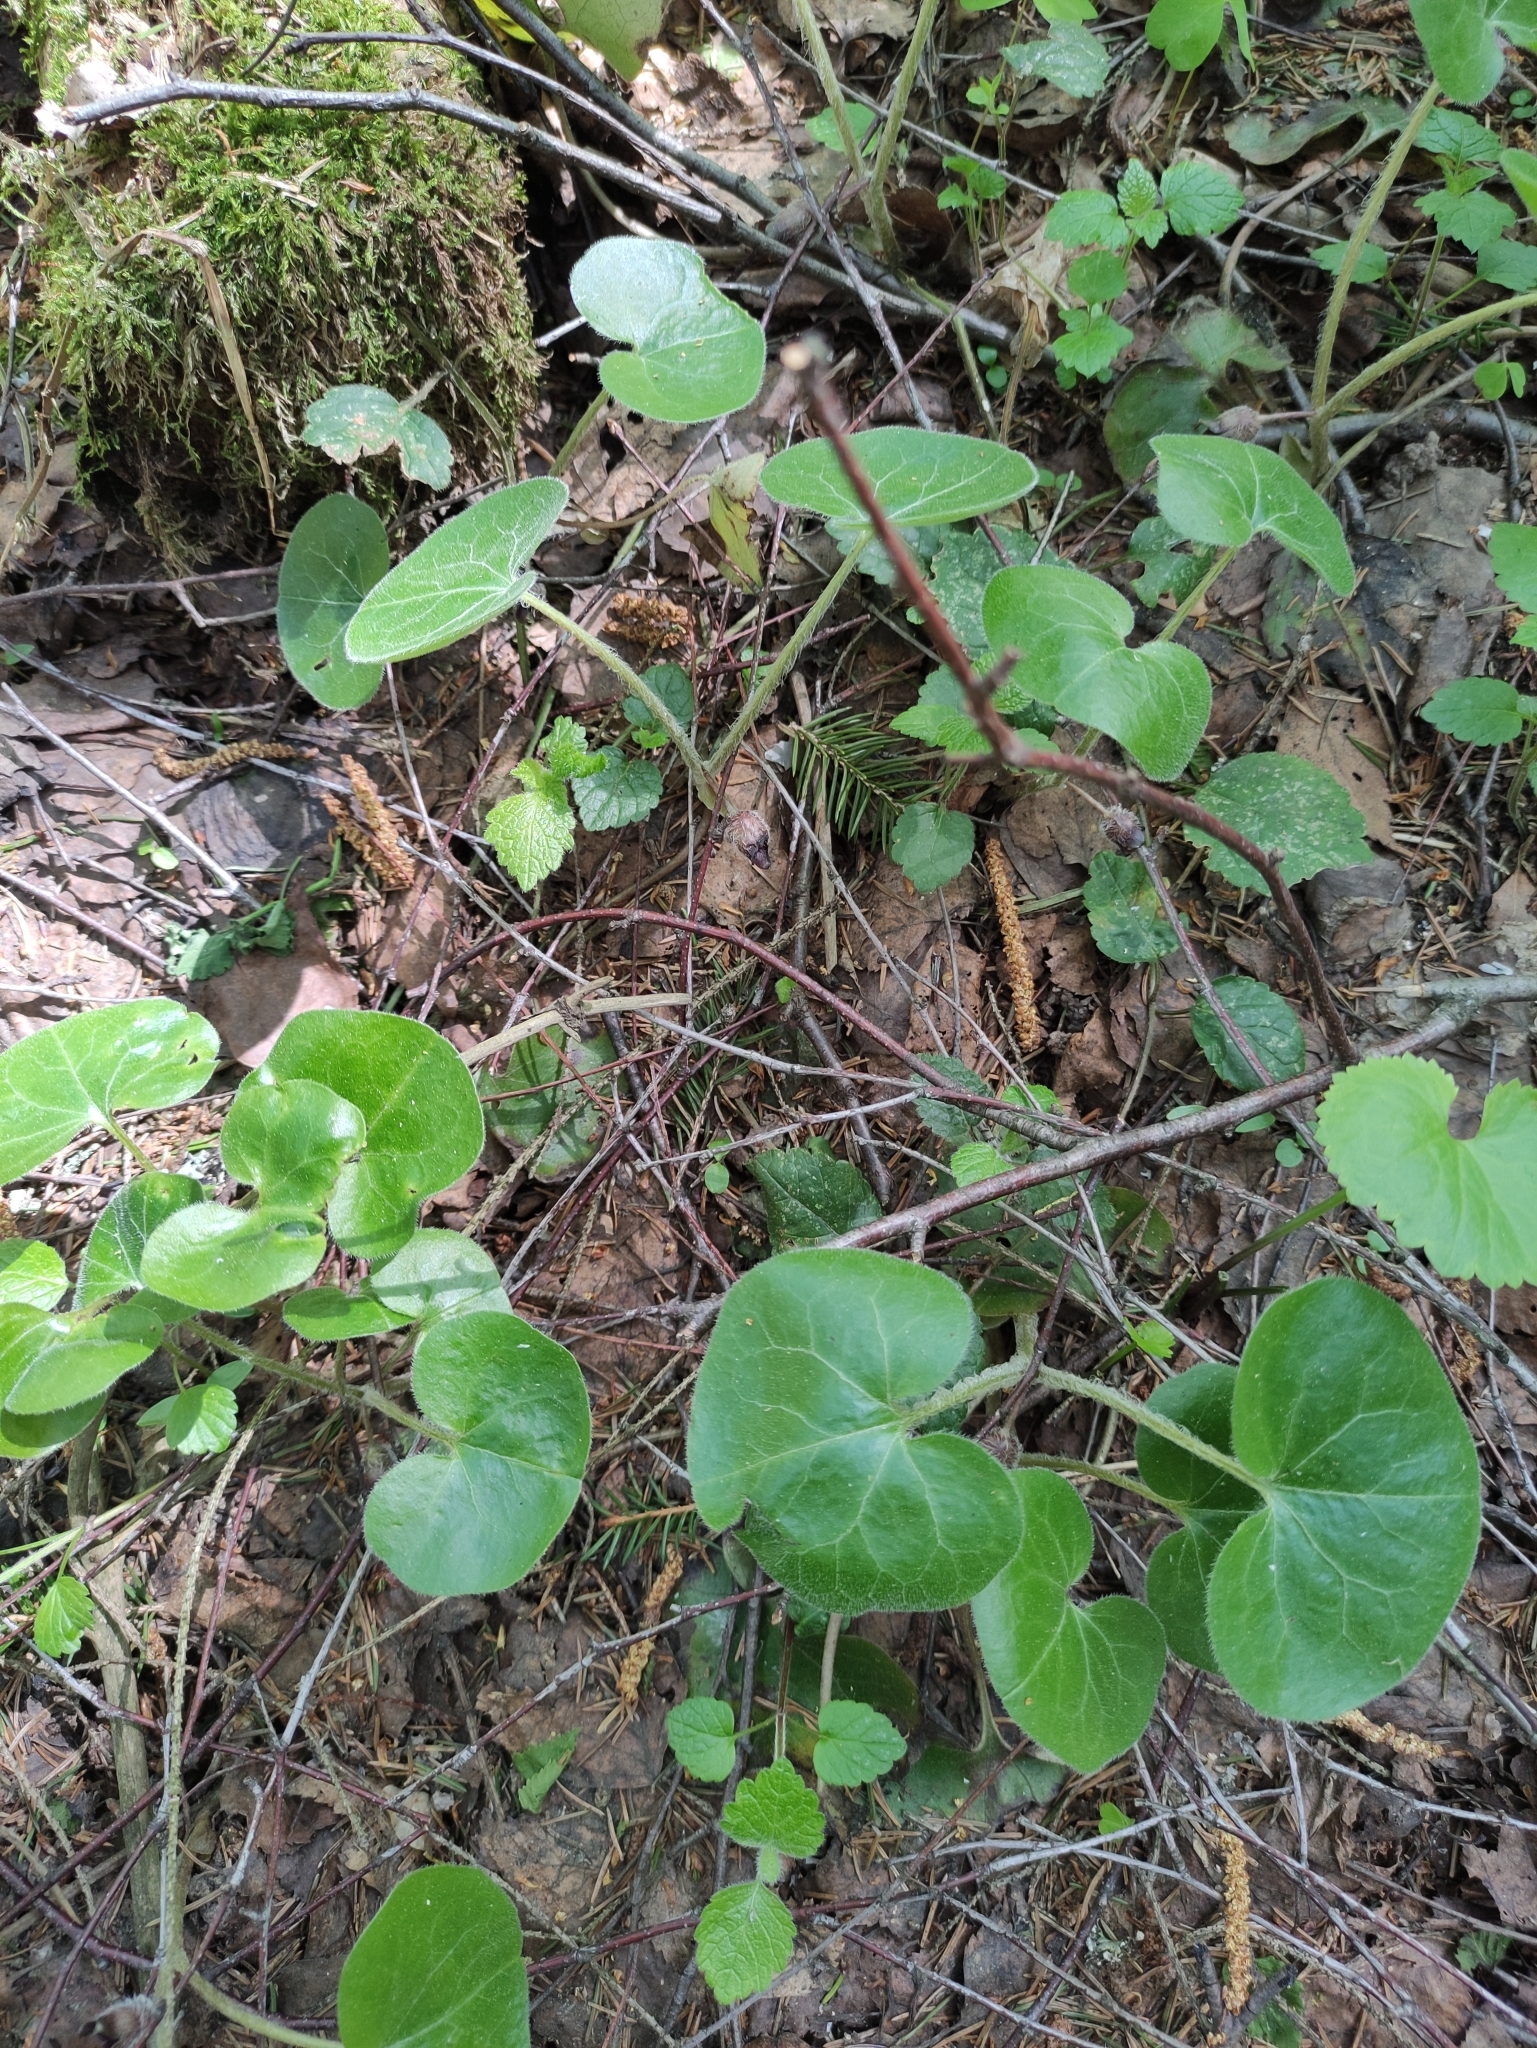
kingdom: Plantae
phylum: Tracheophyta
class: Magnoliopsida
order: Piperales
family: Aristolochiaceae
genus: Asarum
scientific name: Asarum europaeum
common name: Asarabacca
